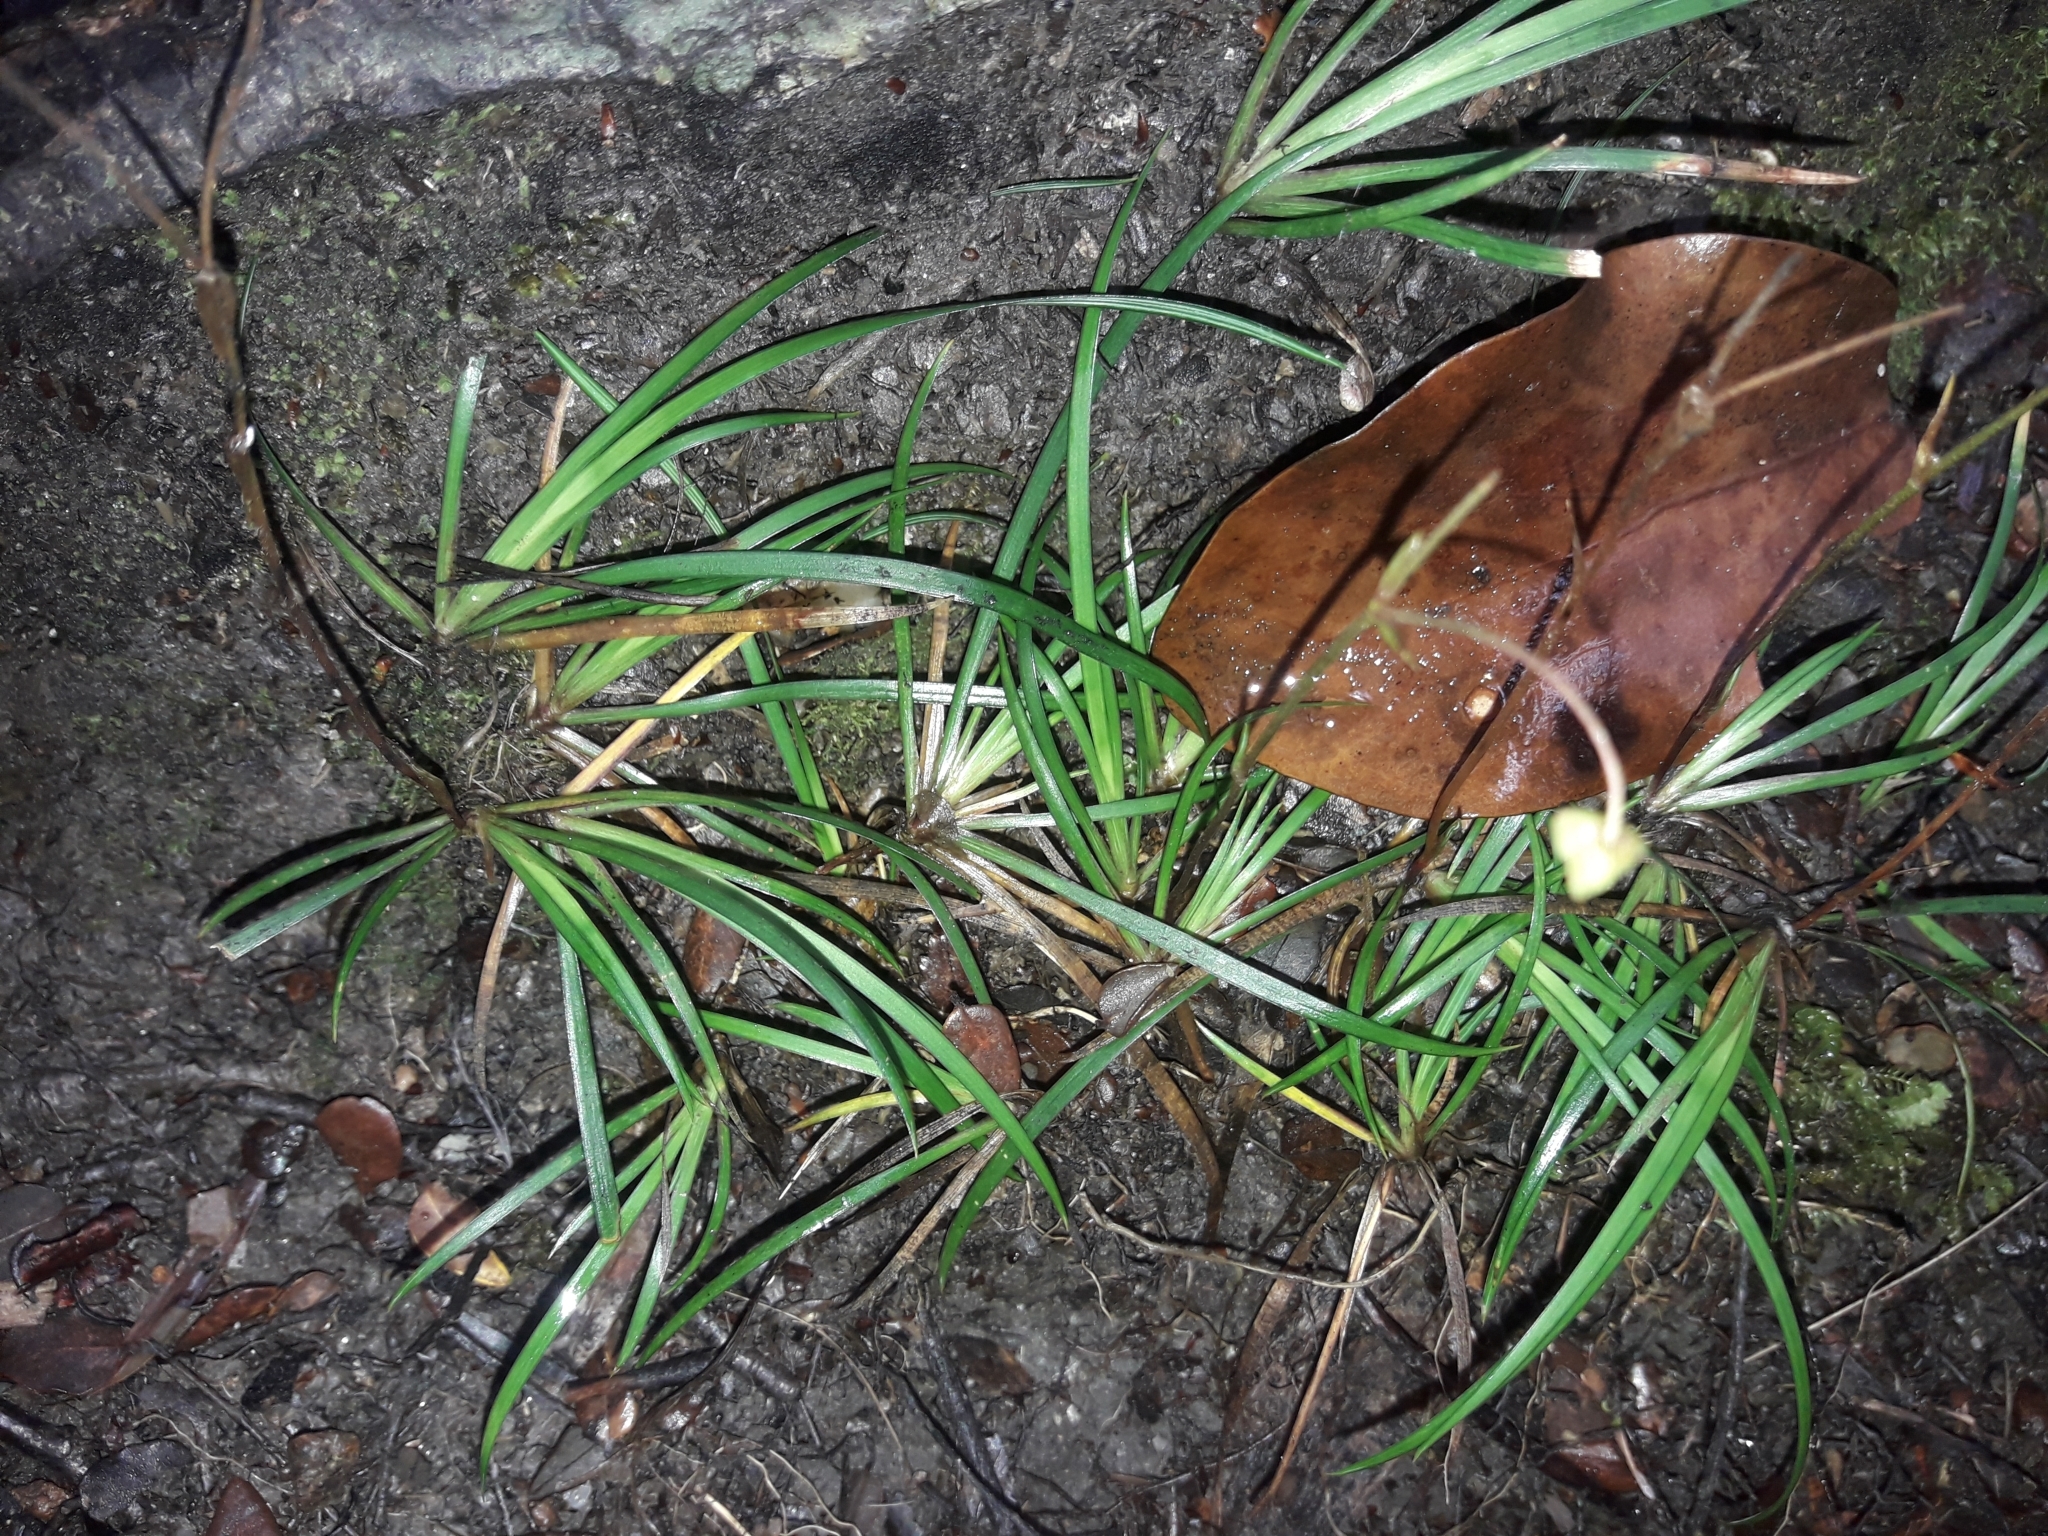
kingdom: Plantae
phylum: Tracheophyta
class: Liliopsida
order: Asparagales
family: Iridaceae
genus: Libertia
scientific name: Libertia micrantha
